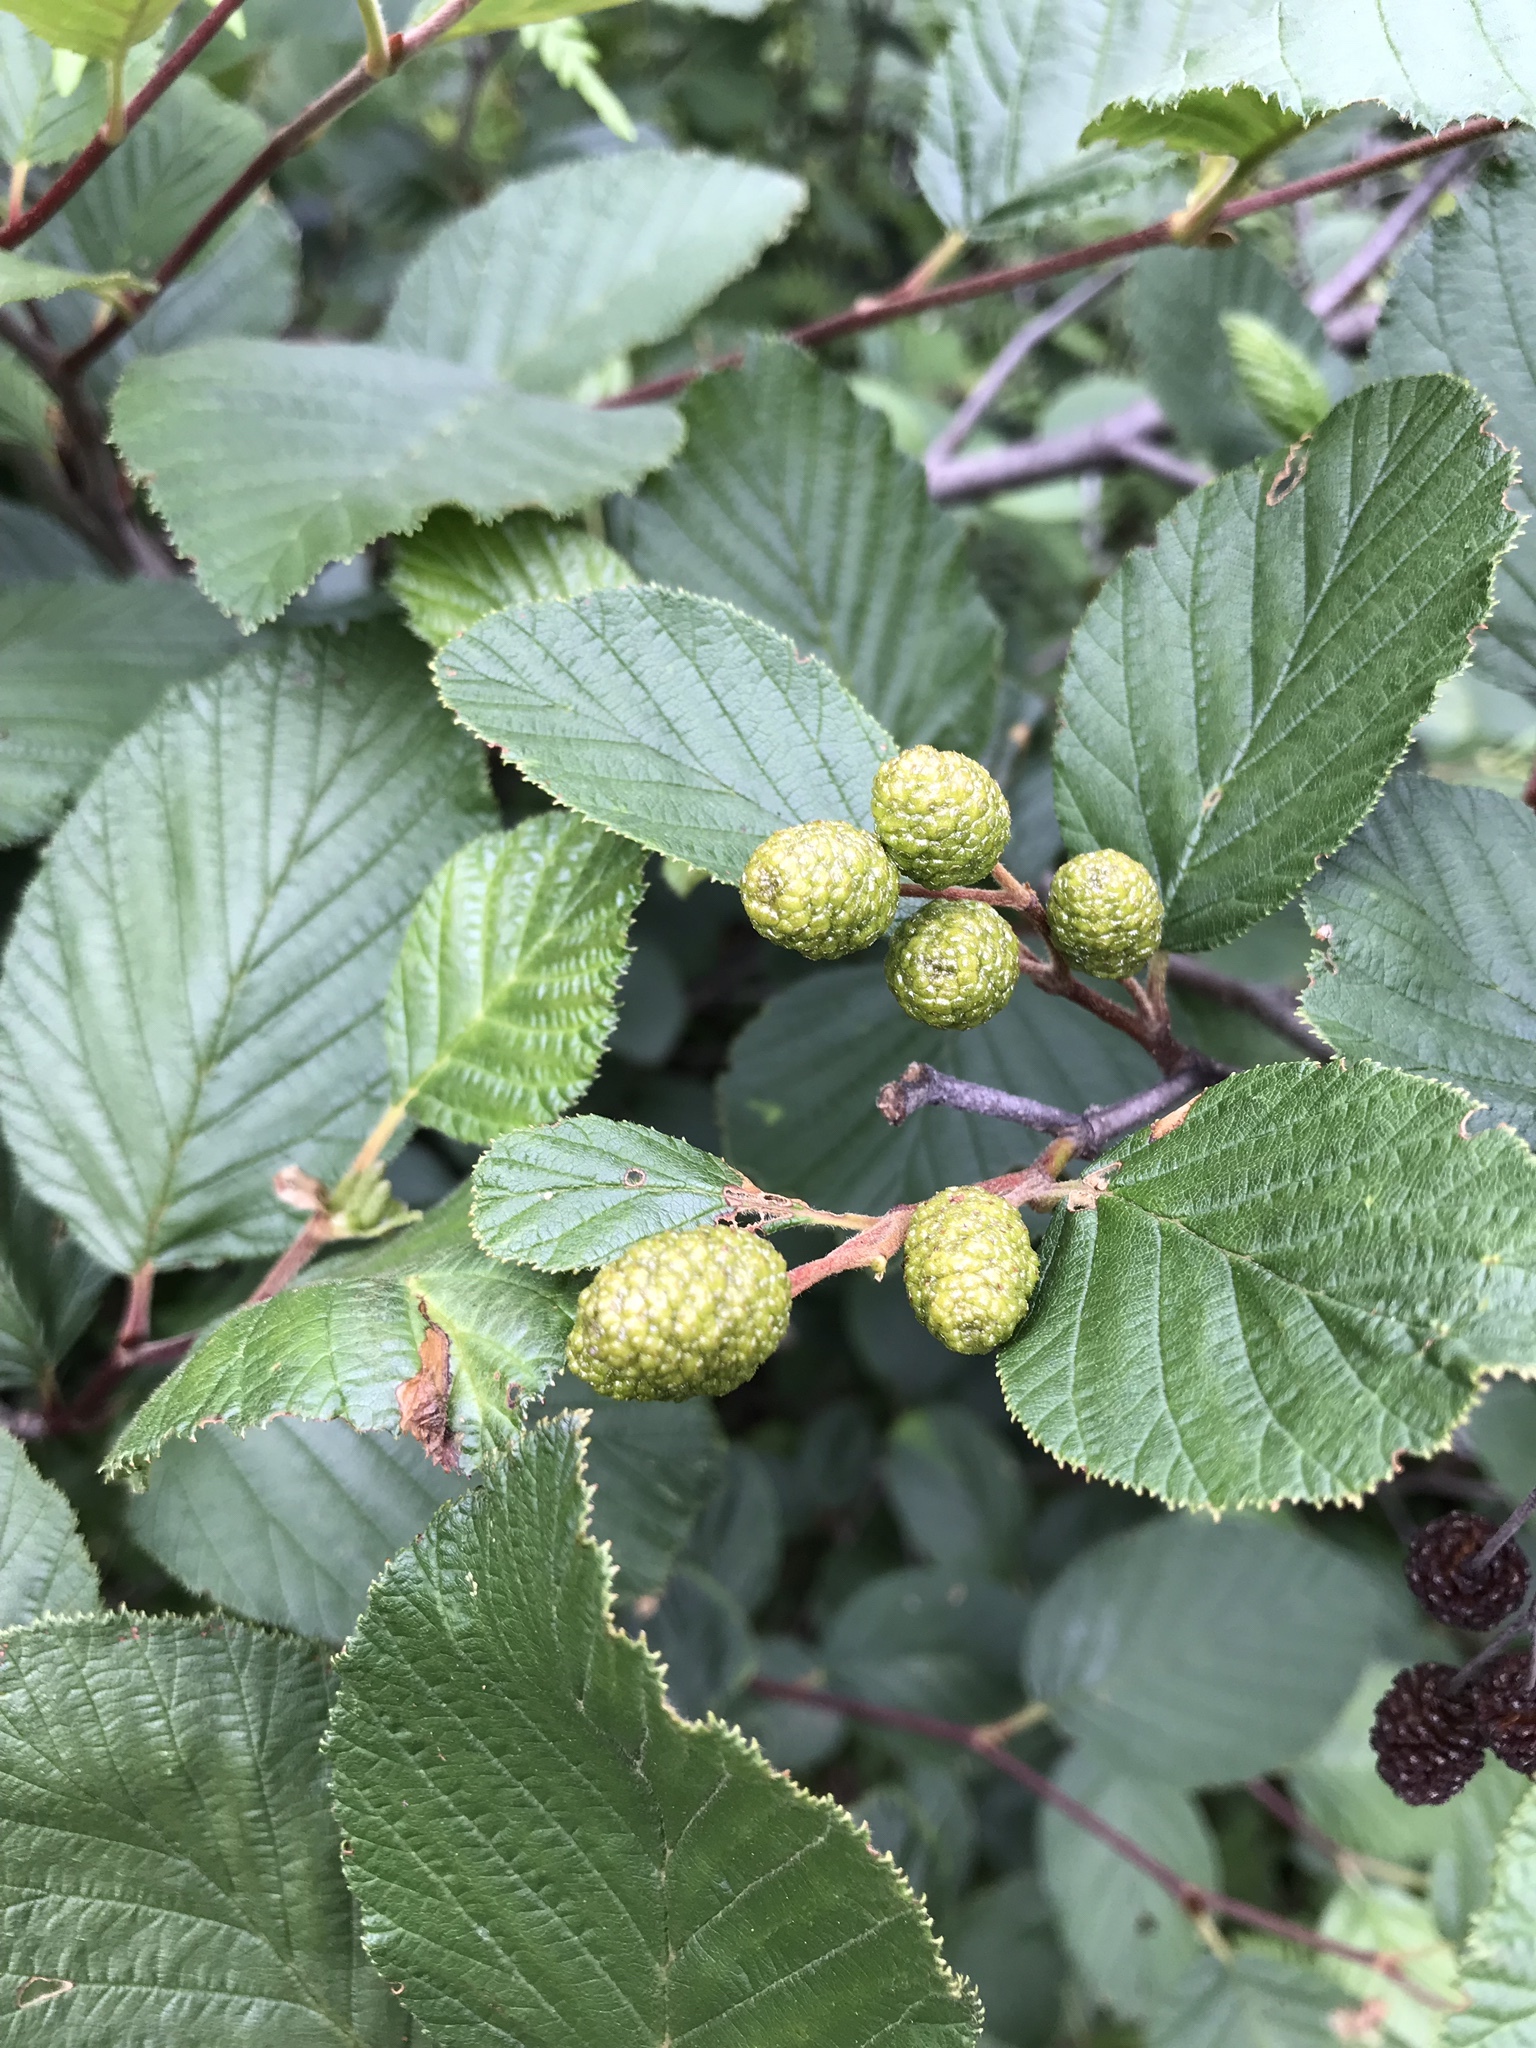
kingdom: Plantae
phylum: Tracheophyta
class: Magnoliopsida
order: Fagales
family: Betulaceae
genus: Alnus
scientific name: Alnus alnobetula
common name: Green alder
